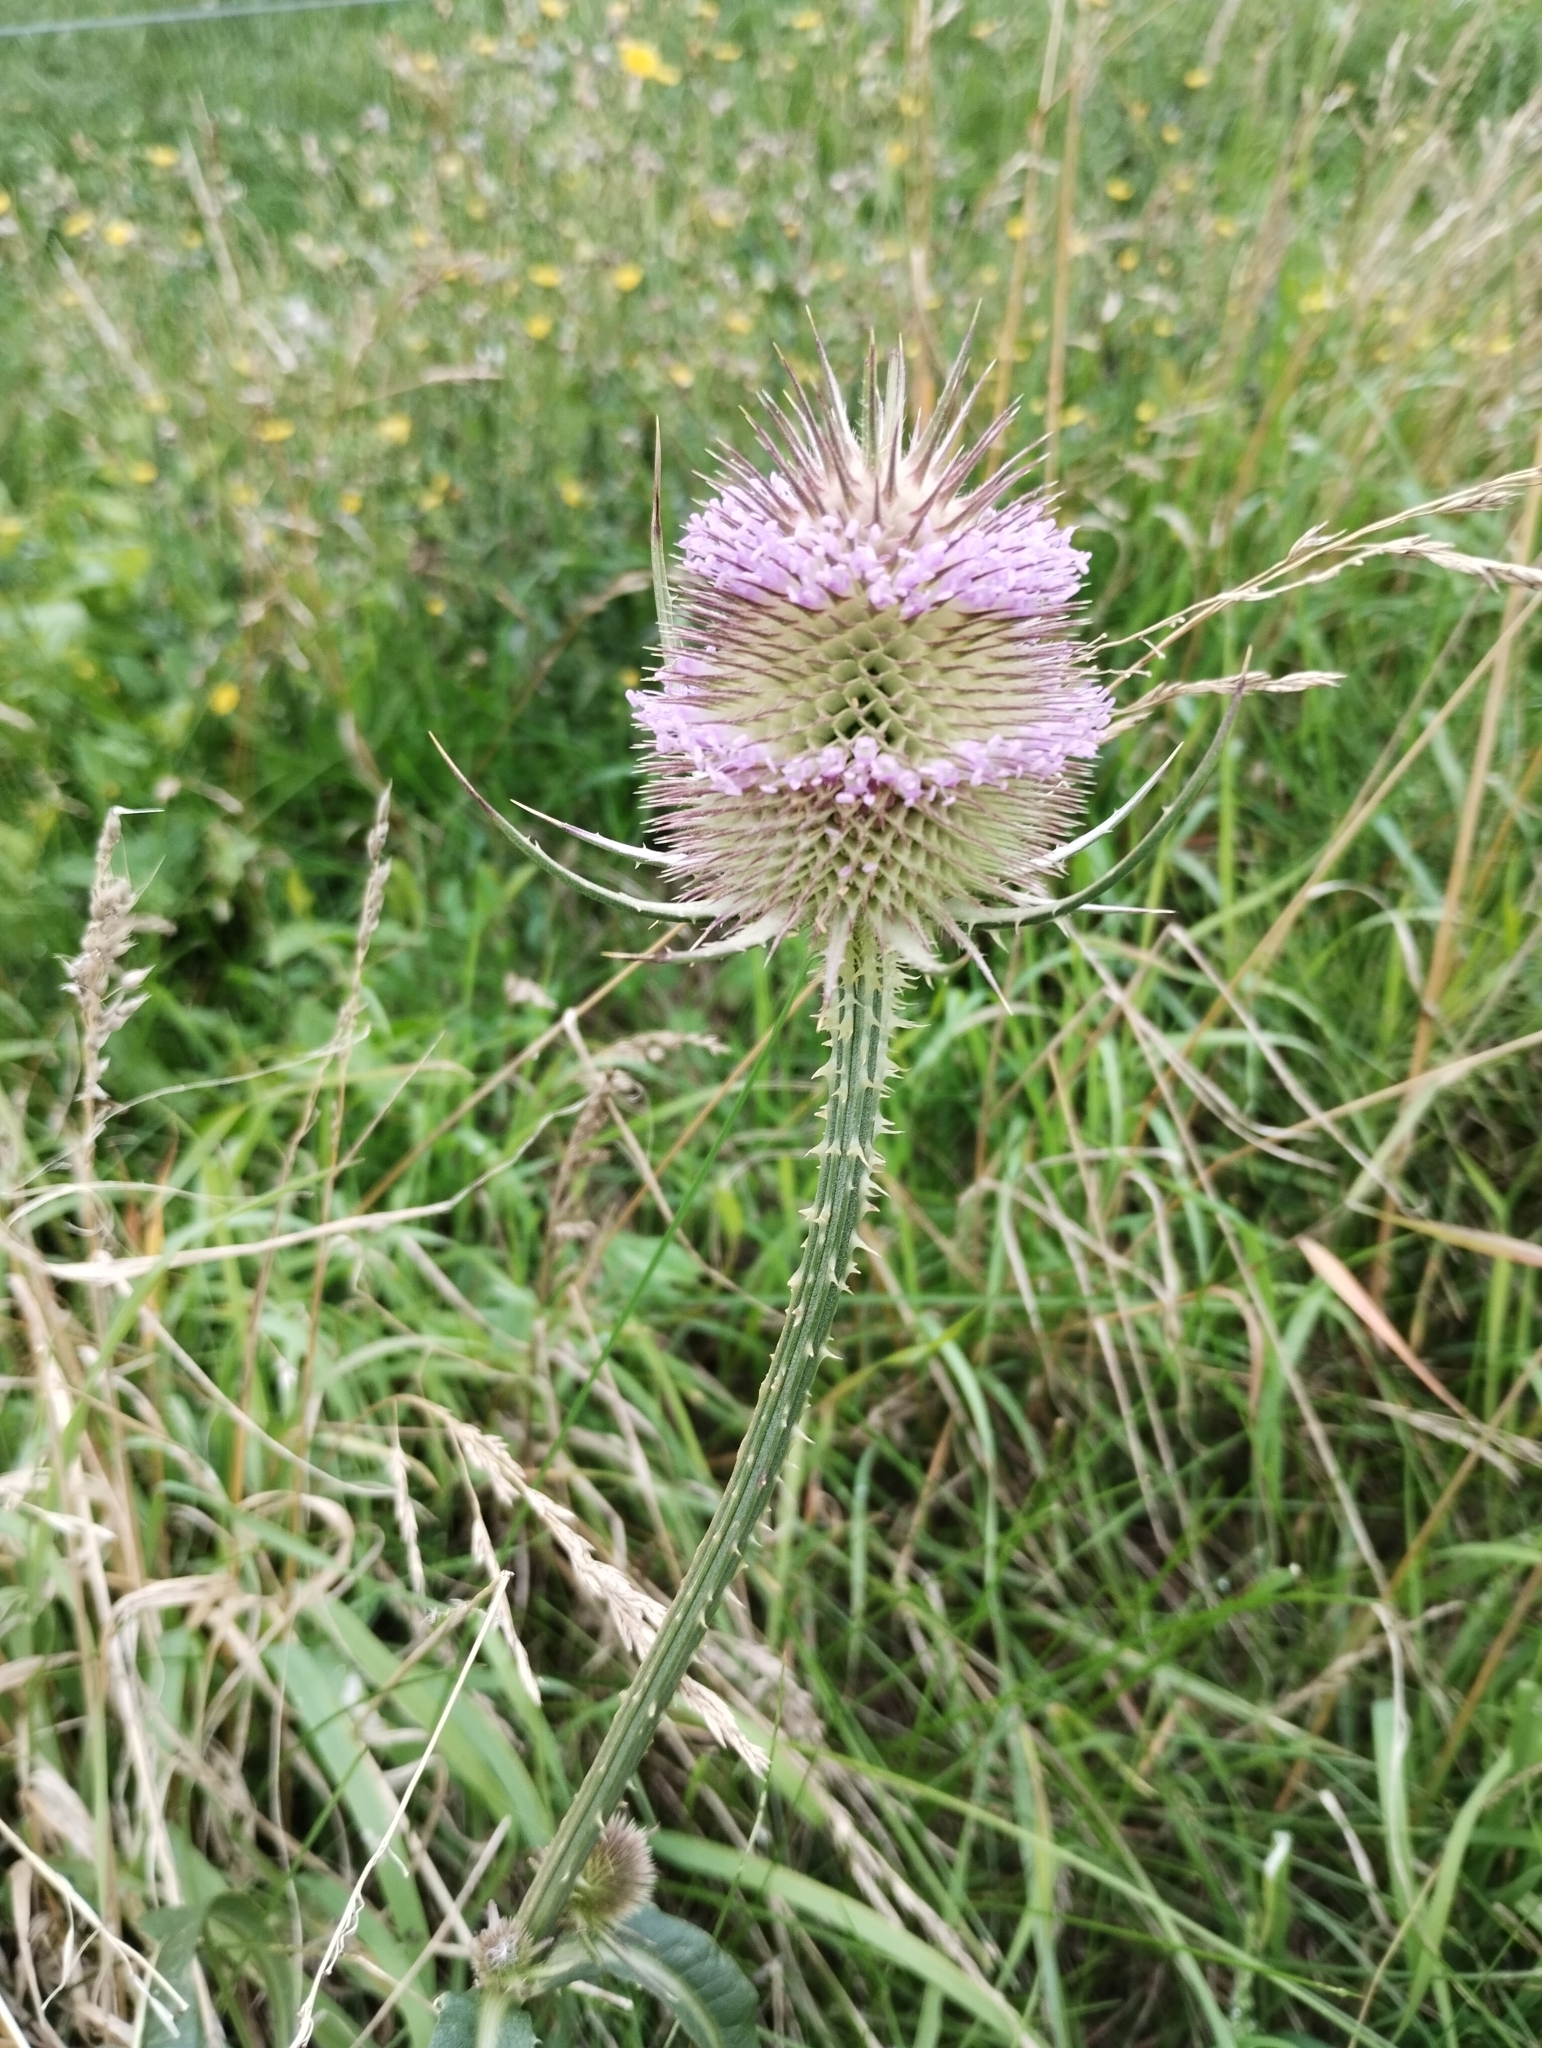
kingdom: Plantae
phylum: Tracheophyta
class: Magnoliopsida
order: Dipsacales
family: Caprifoliaceae
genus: Dipsacus
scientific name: Dipsacus fullonum
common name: Teasel
